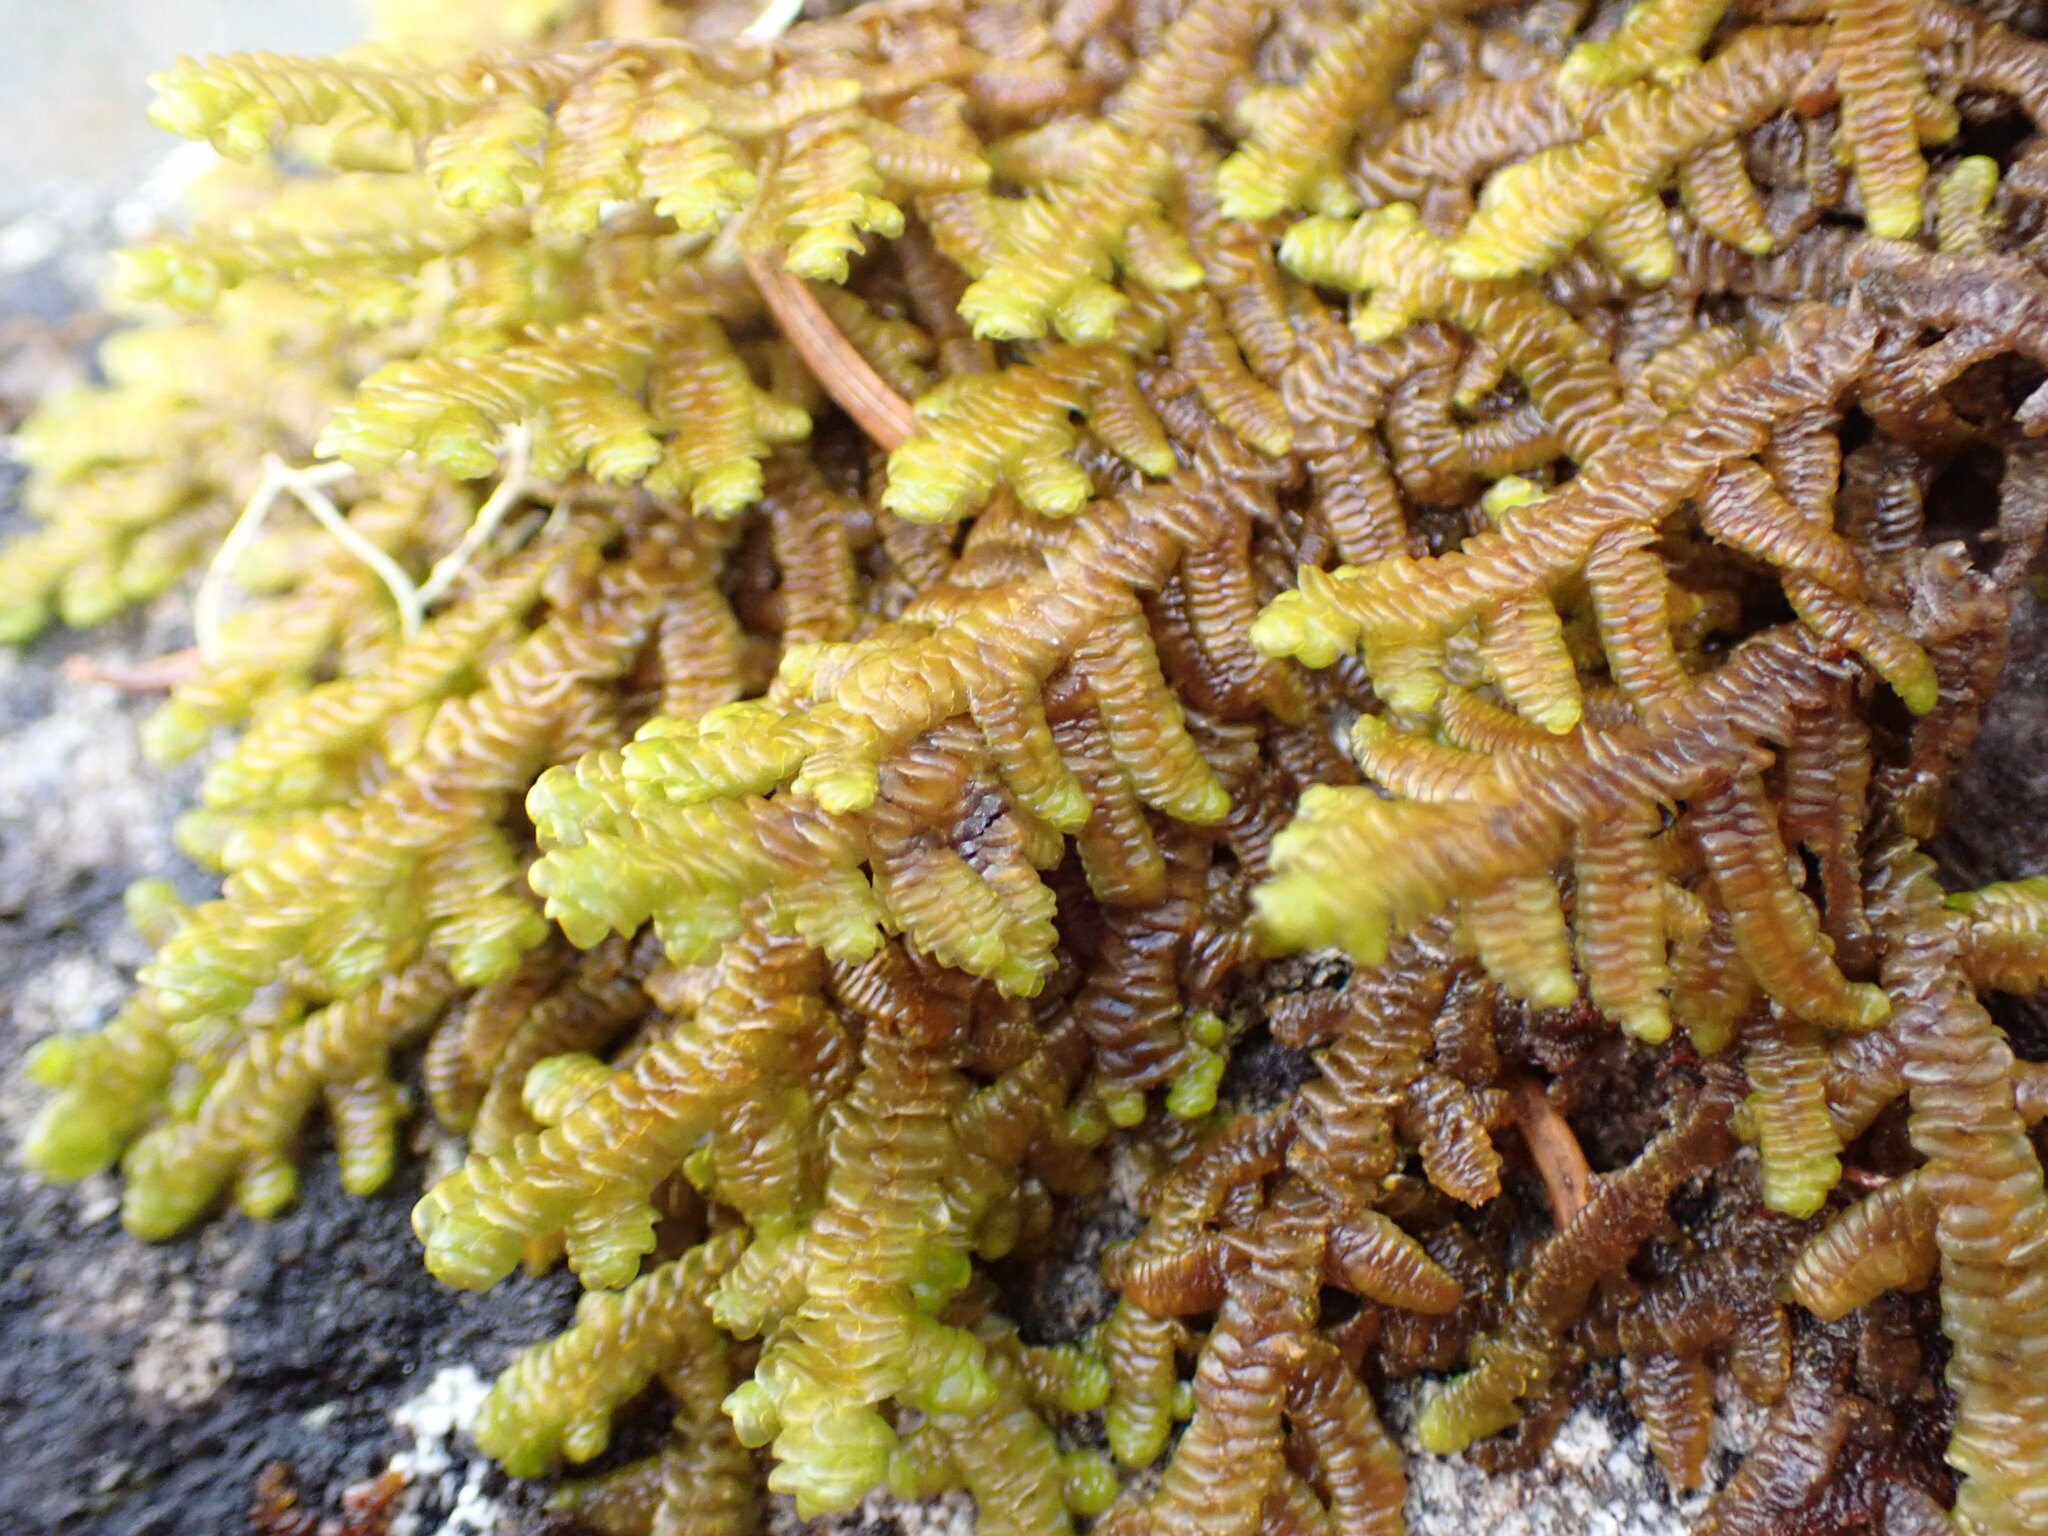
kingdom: Plantae
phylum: Marchantiophyta
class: Jungermanniopsida
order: Porellales
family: Porellaceae
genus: Porella
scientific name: Porella navicularis
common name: Tree ruffle liverwort
